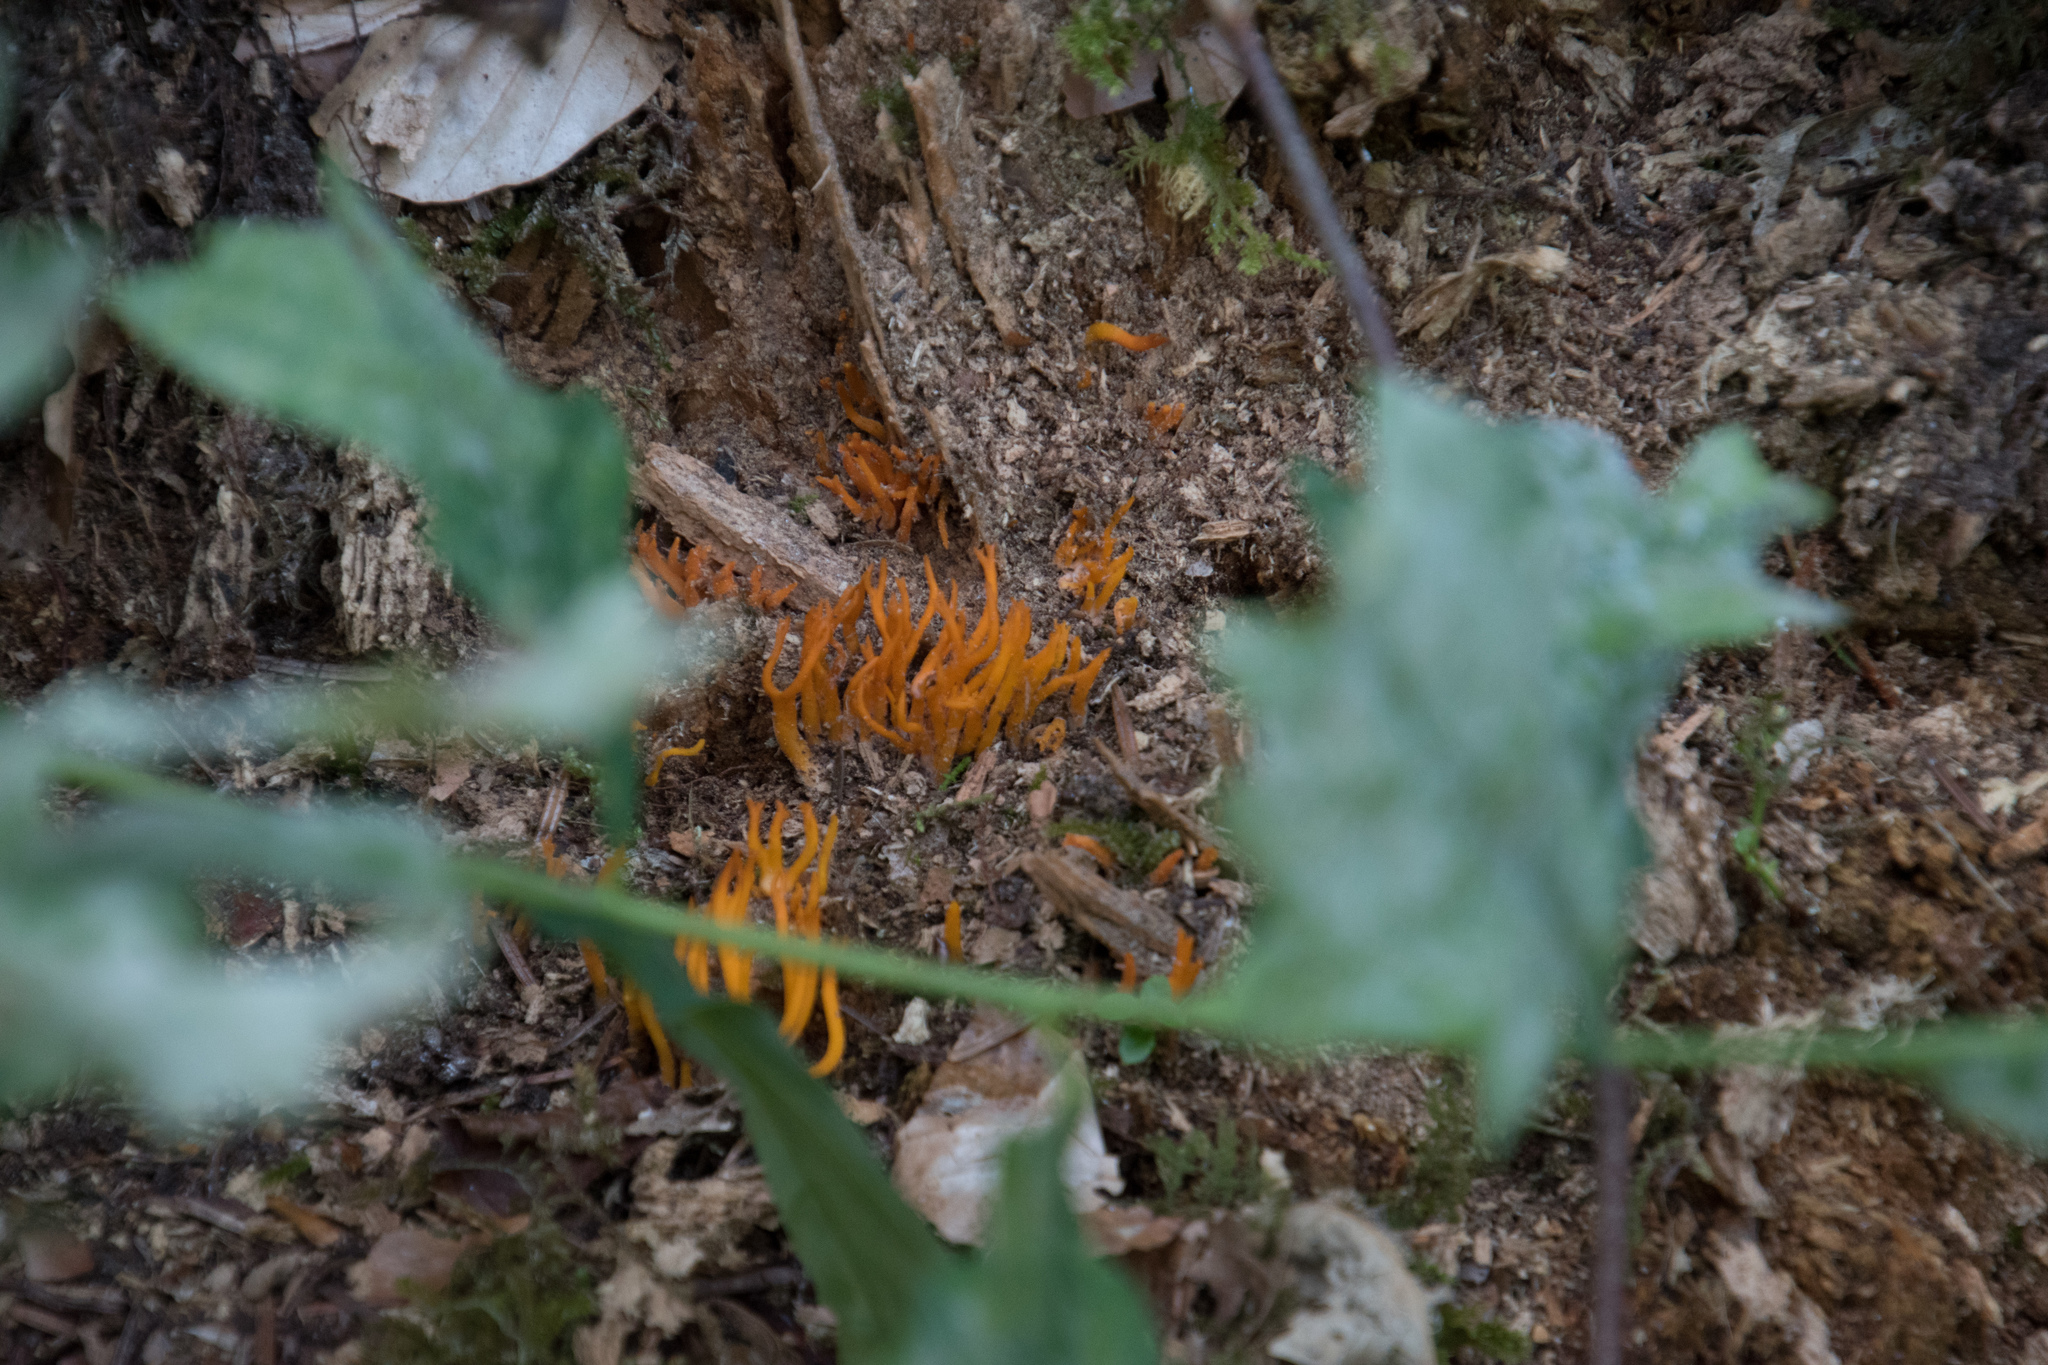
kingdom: Fungi
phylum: Basidiomycota
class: Dacrymycetes
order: Dacrymycetales
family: Dacrymycetaceae
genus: Calocera
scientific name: Calocera viscosa
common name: Yellow stagshorn
